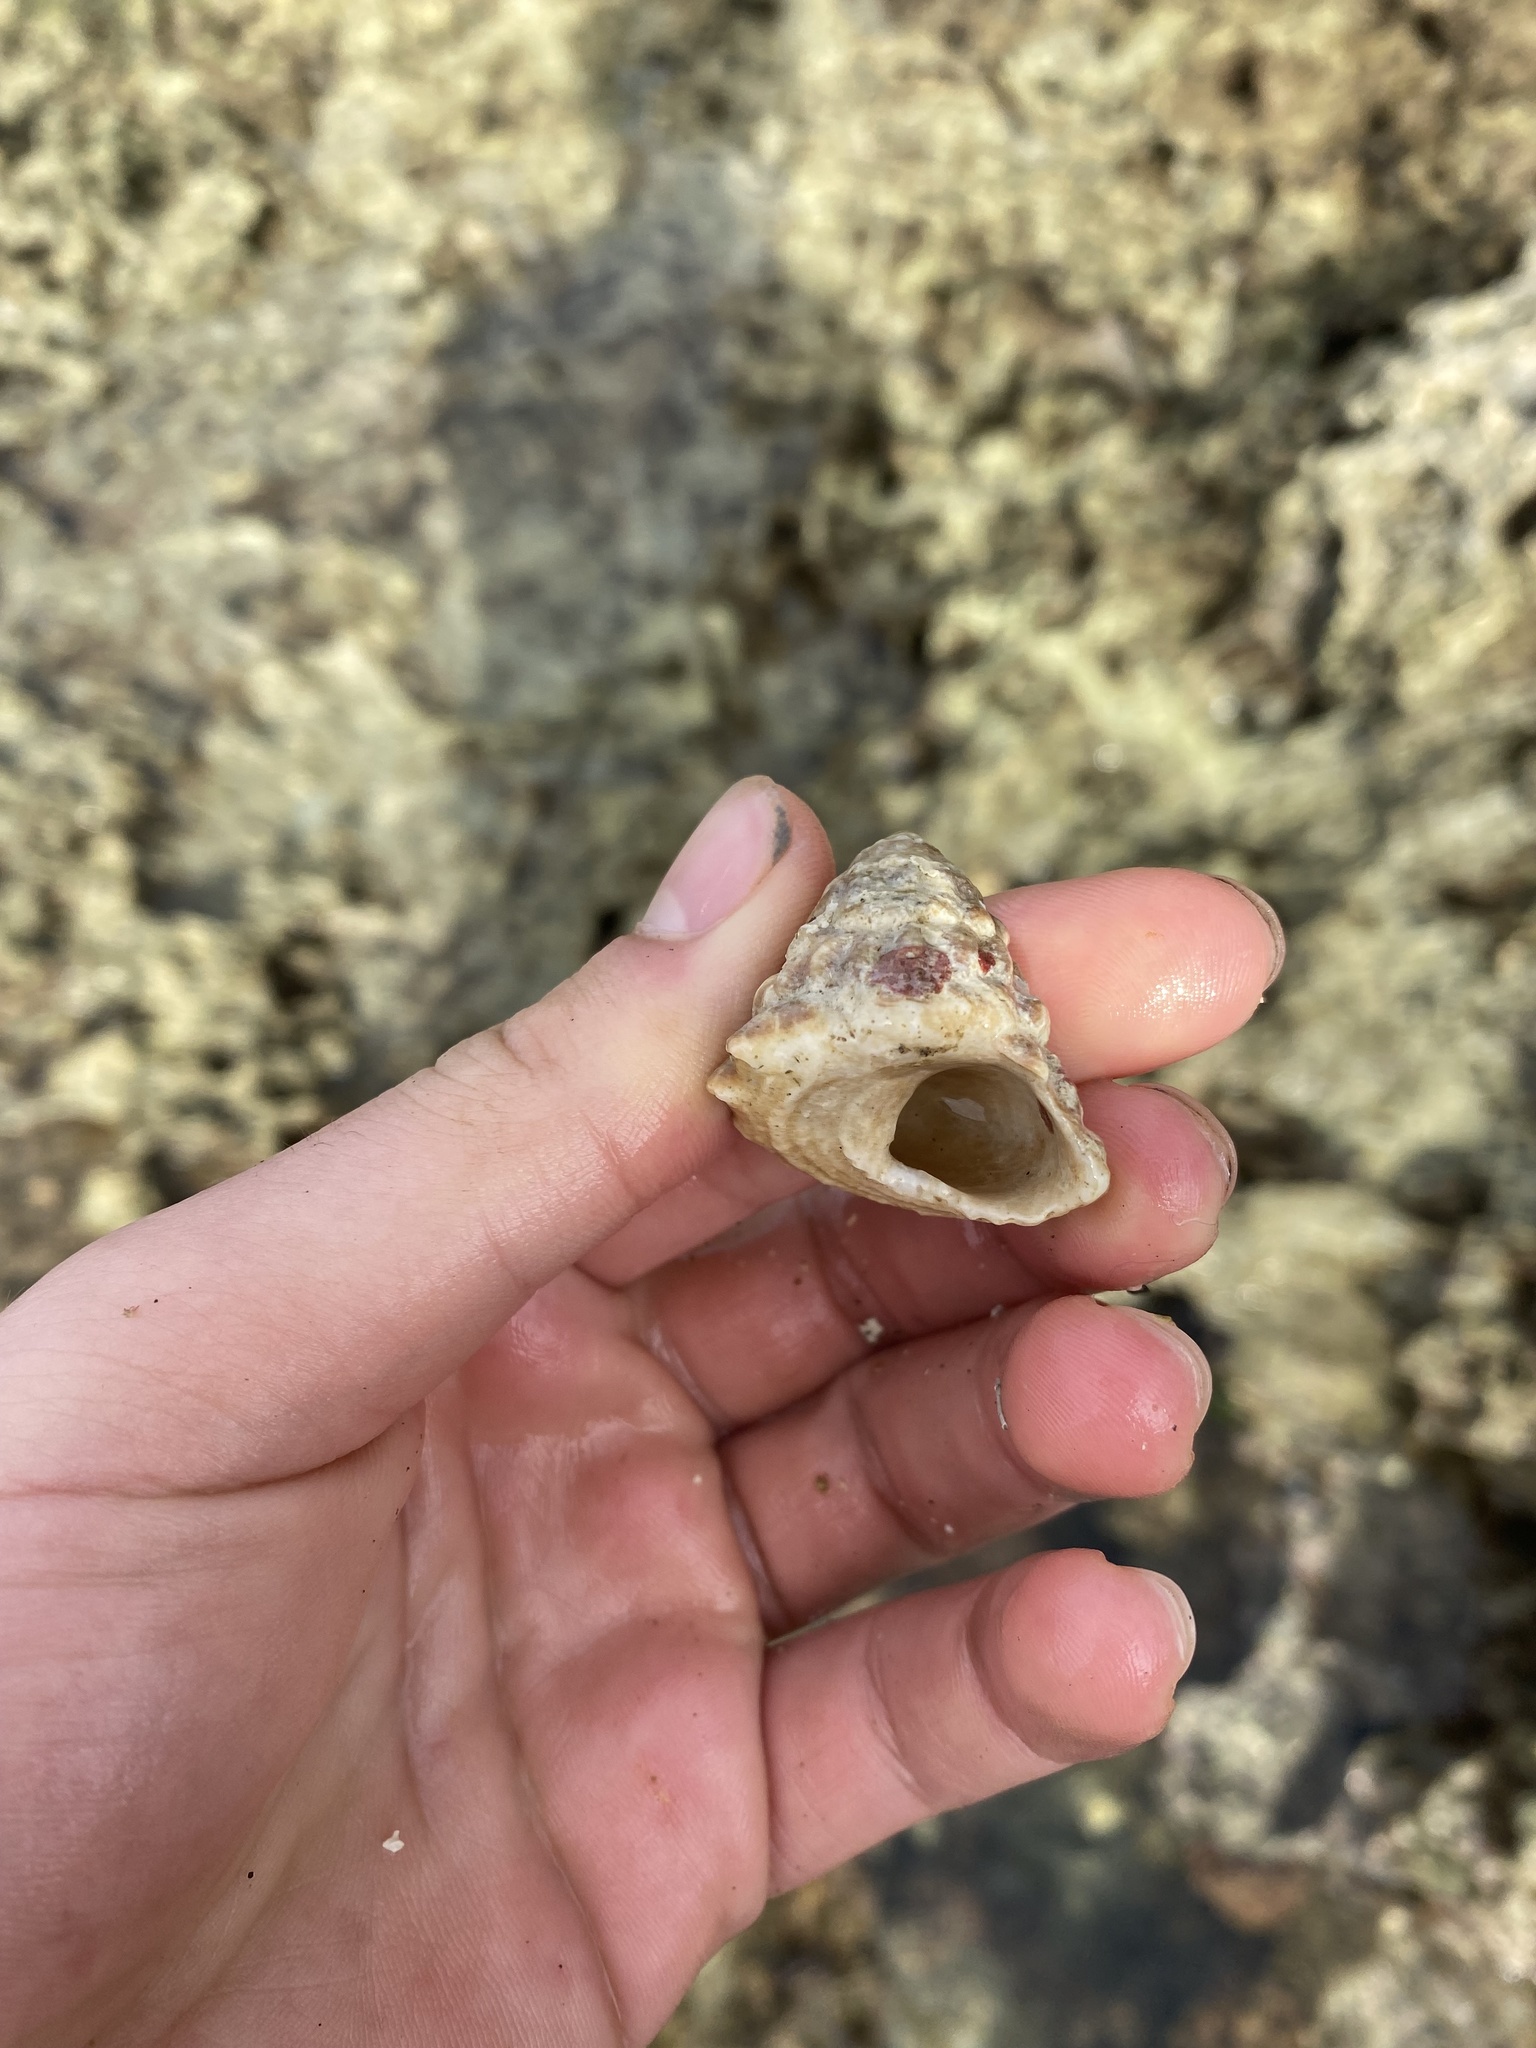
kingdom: Animalia
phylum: Mollusca
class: Gastropoda
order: Trochida
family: Turbinidae
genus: Lithopoma
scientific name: Lithopoma tectum
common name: West indian starsnail
